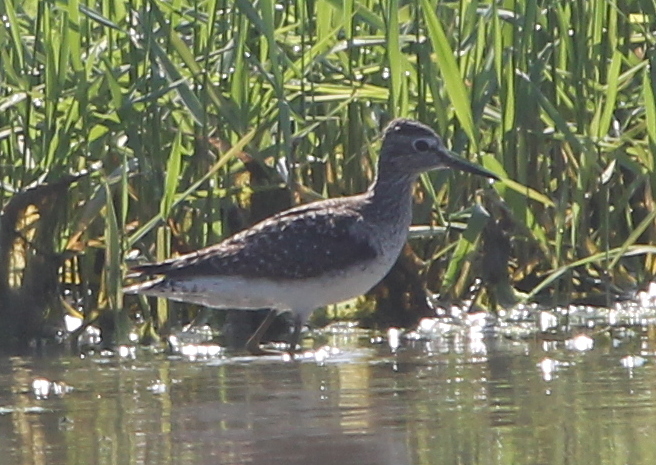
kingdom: Animalia
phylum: Chordata
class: Aves
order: Charadriiformes
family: Scolopacidae
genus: Tringa
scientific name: Tringa glareola
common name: Wood sandpiper
